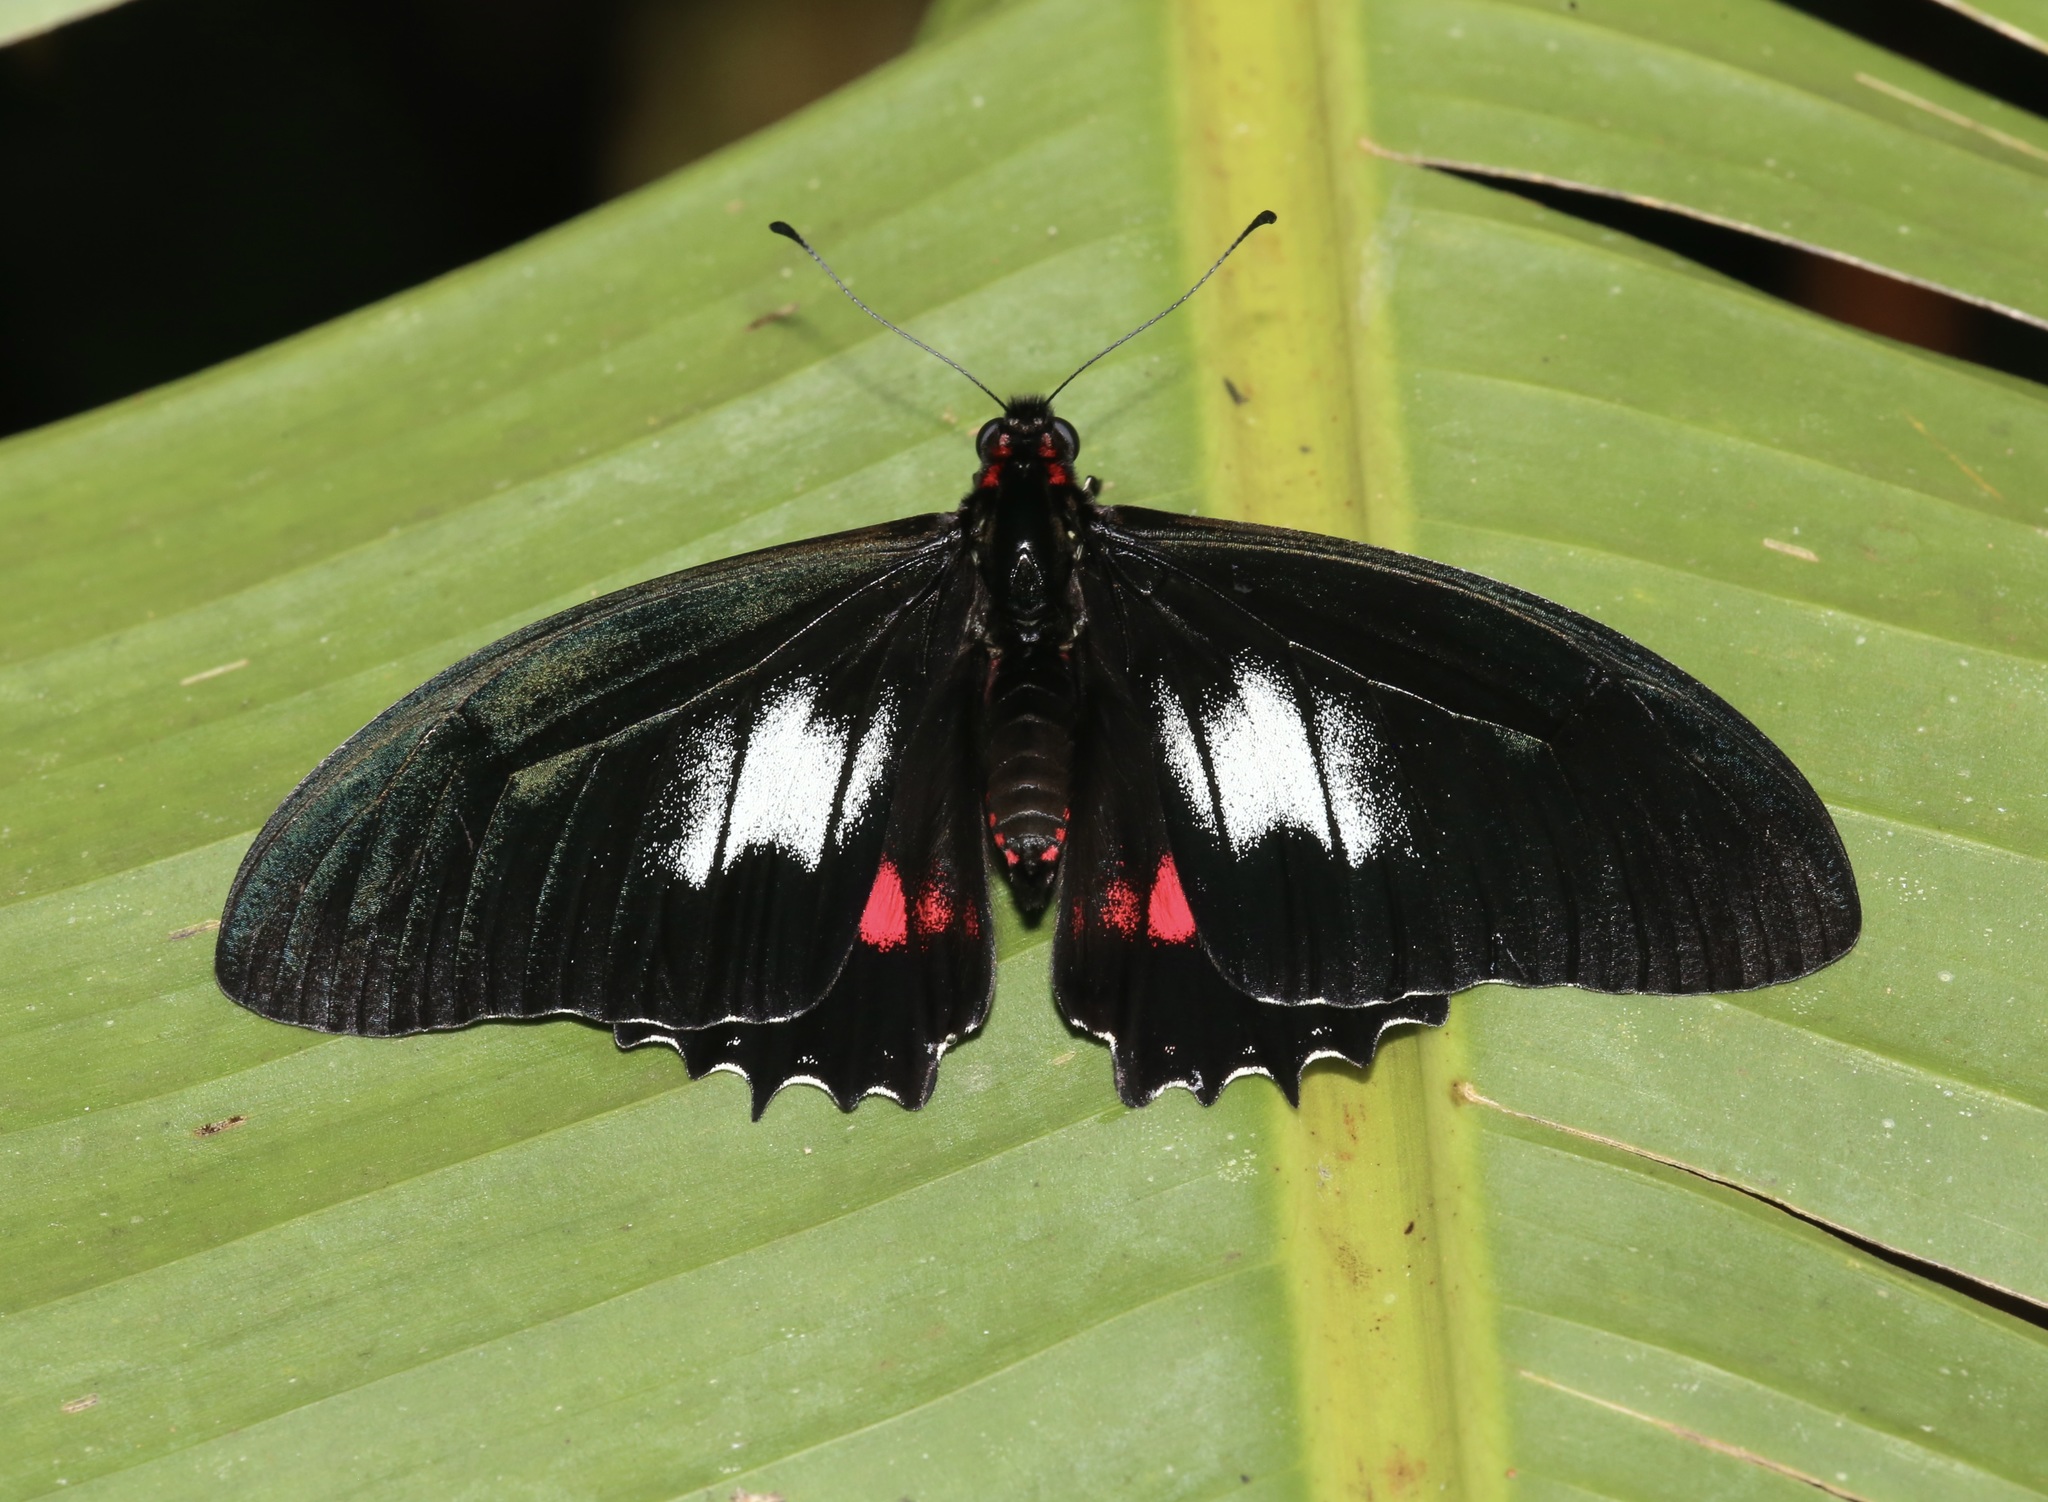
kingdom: Animalia
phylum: Arthropoda
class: Insecta
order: Lepidoptera
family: Papilionidae
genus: Mimoides
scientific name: Mimoides euryleon
